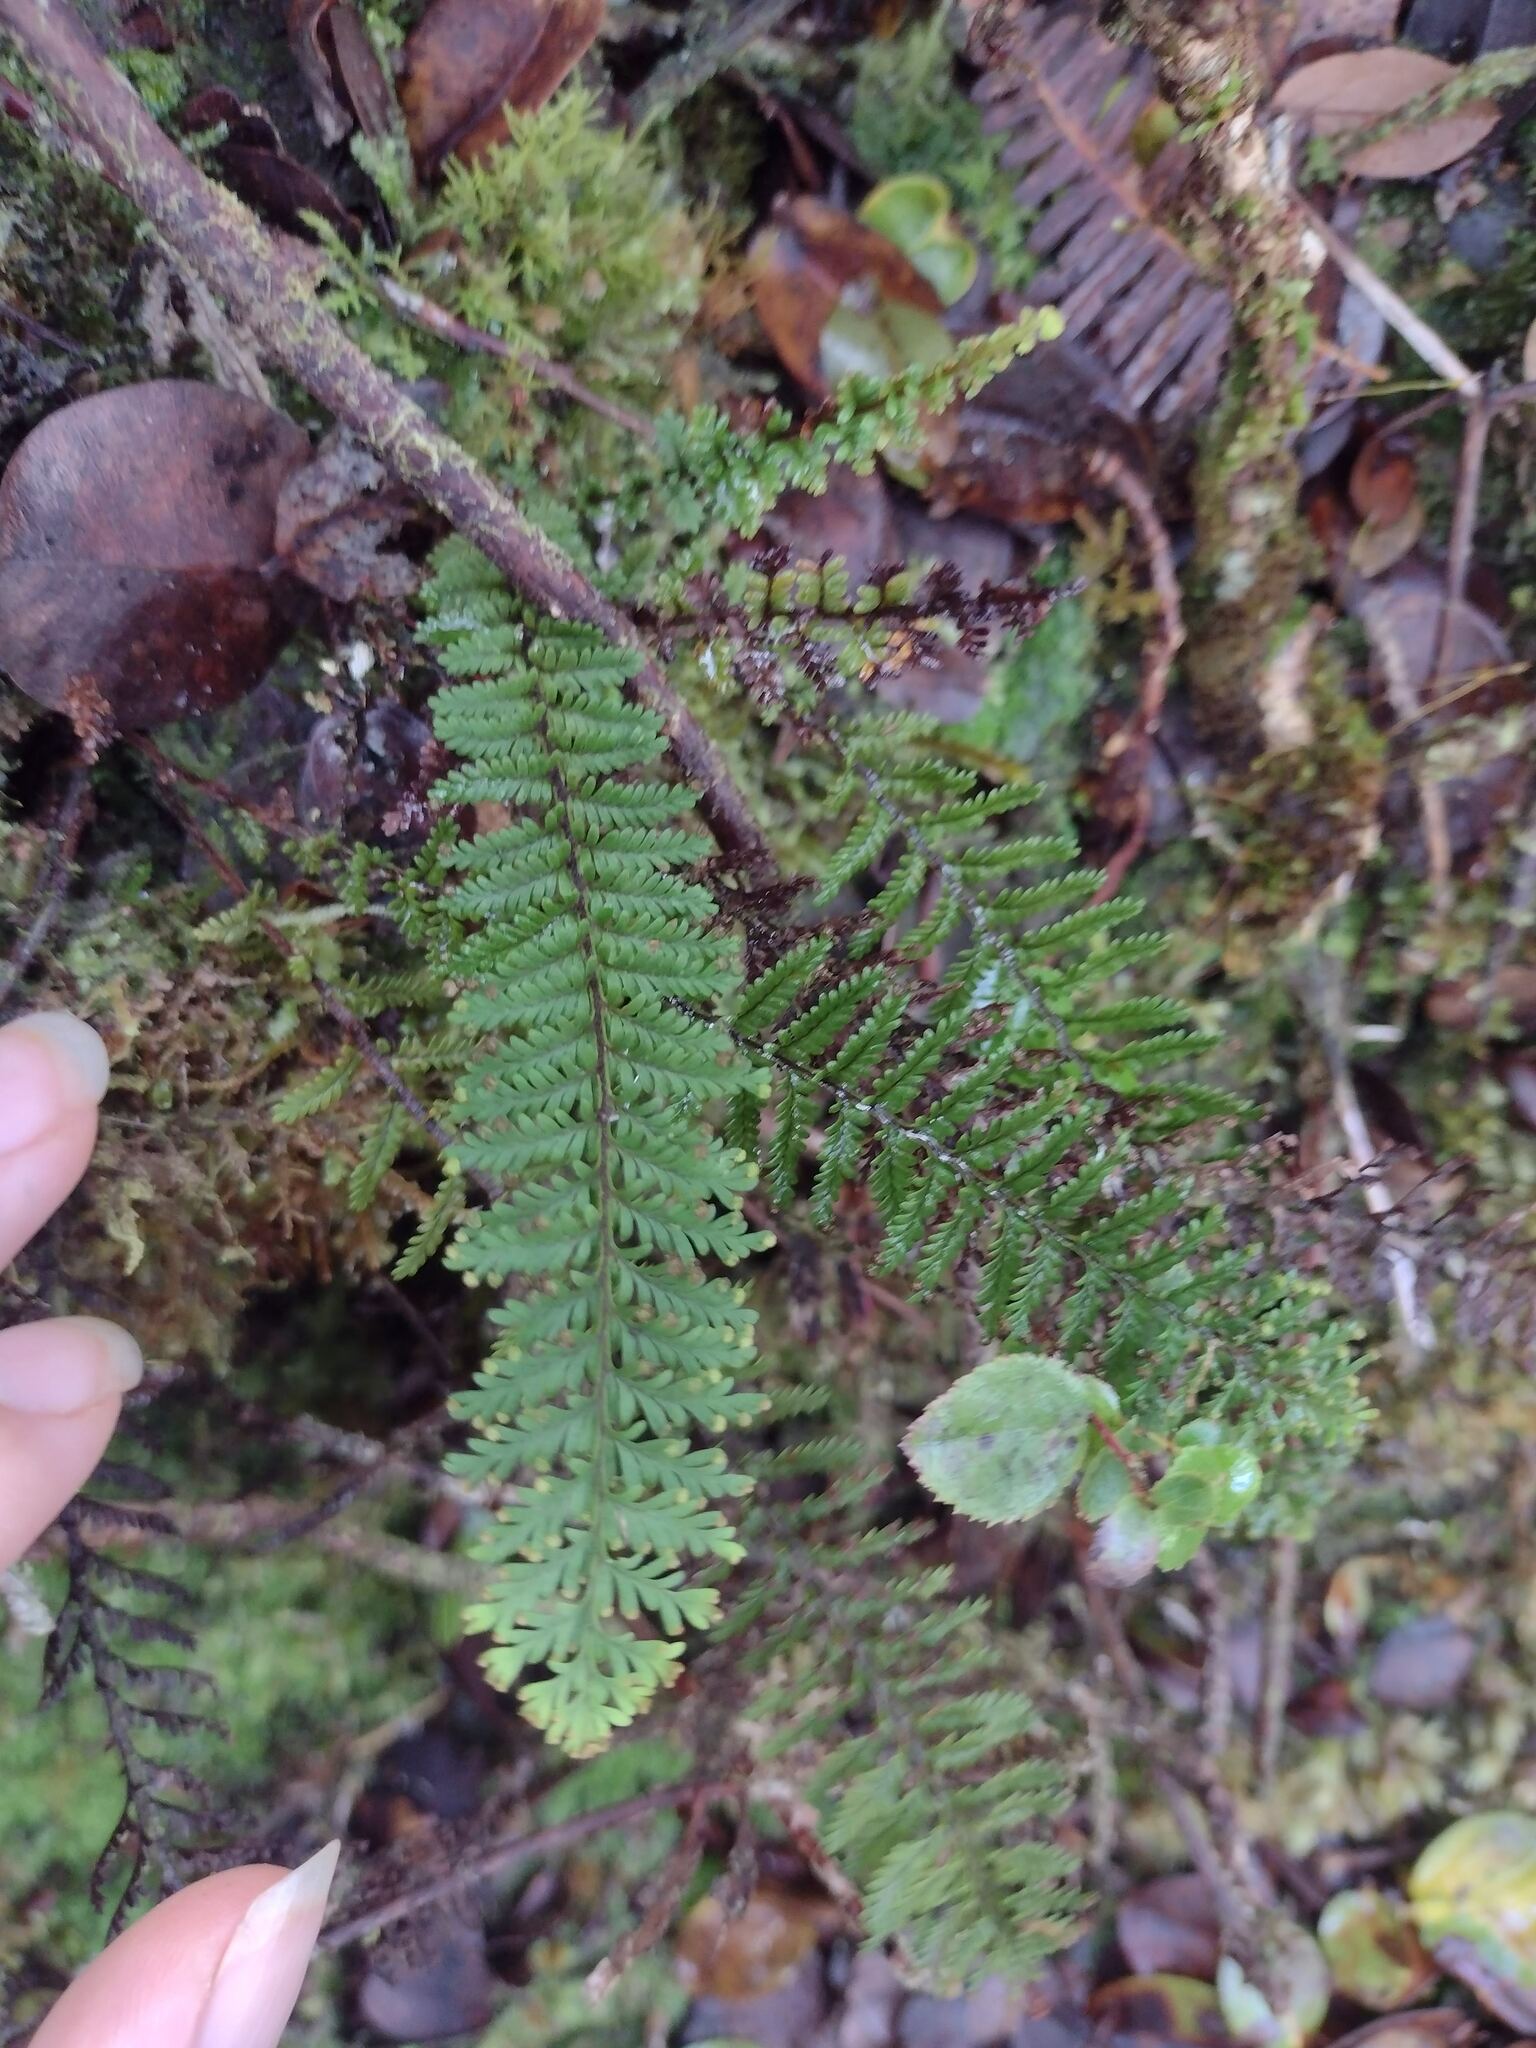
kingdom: Plantae
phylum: Tracheophyta
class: Polypodiopsida
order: Polypodiales
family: Polypodiaceae
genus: Adenophorus
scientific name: Adenophorus tamariscinus
